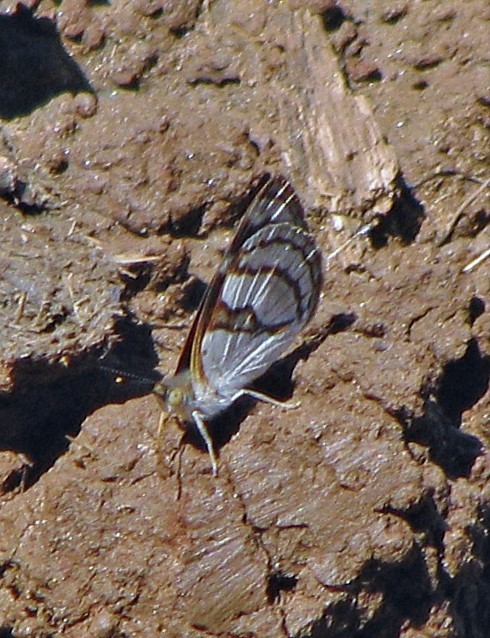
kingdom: Animalia
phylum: Arthropoda
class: Insecta
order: Lepidoptera
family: Nymphalidae
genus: Dynamine
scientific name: Dynamine tithia
